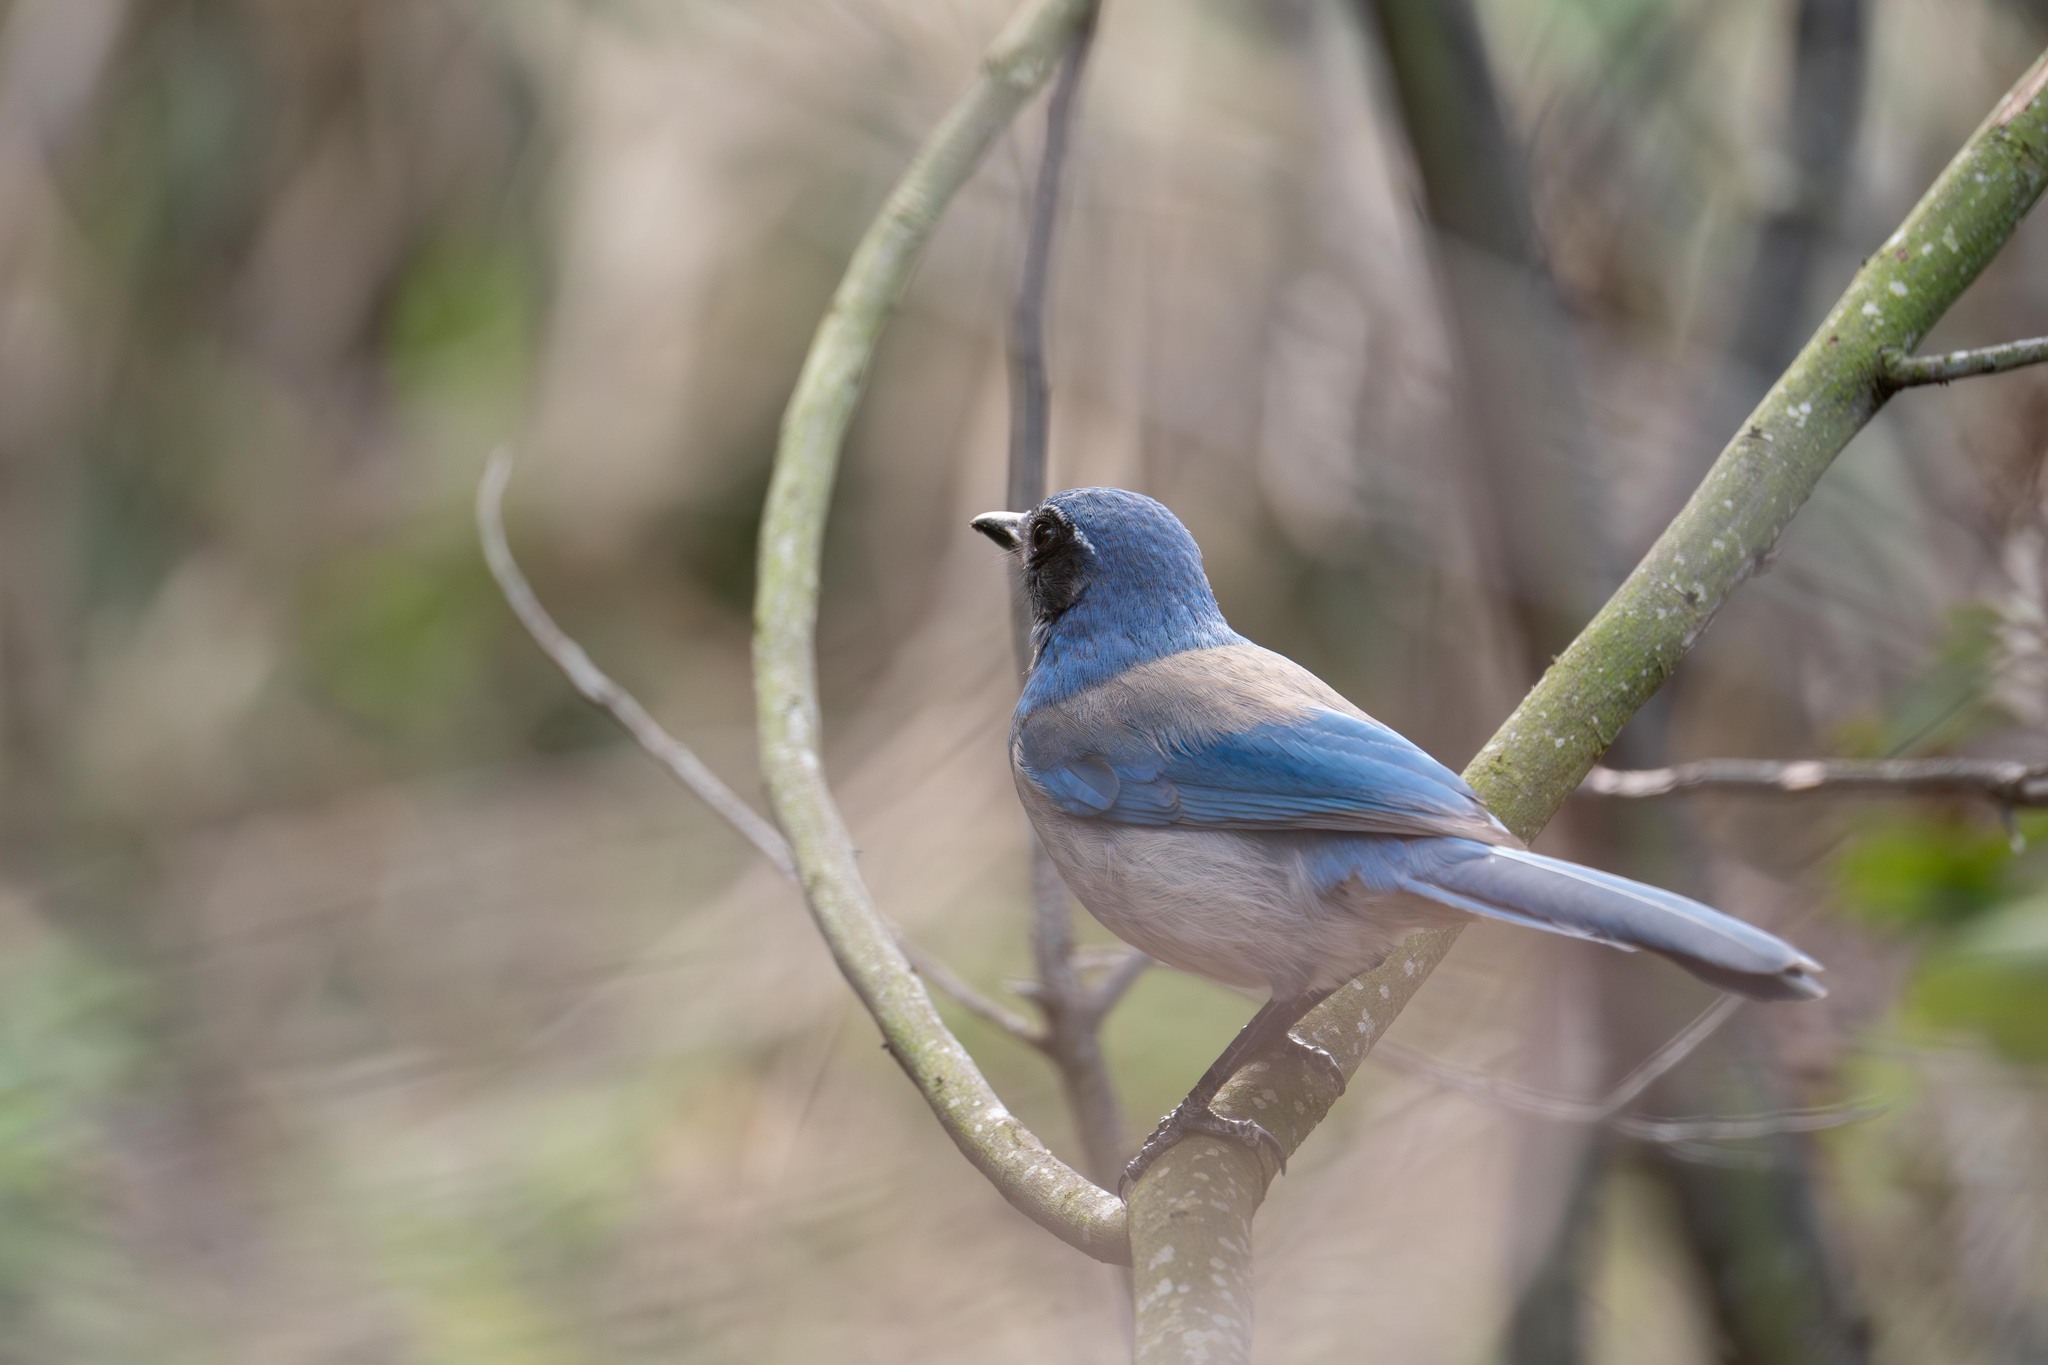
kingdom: Animalia
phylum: Chordata
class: Aves
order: Passeriformes
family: Corvidae
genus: Aphelocoma
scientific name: Aphelocoma californica
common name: California scrub-jay
